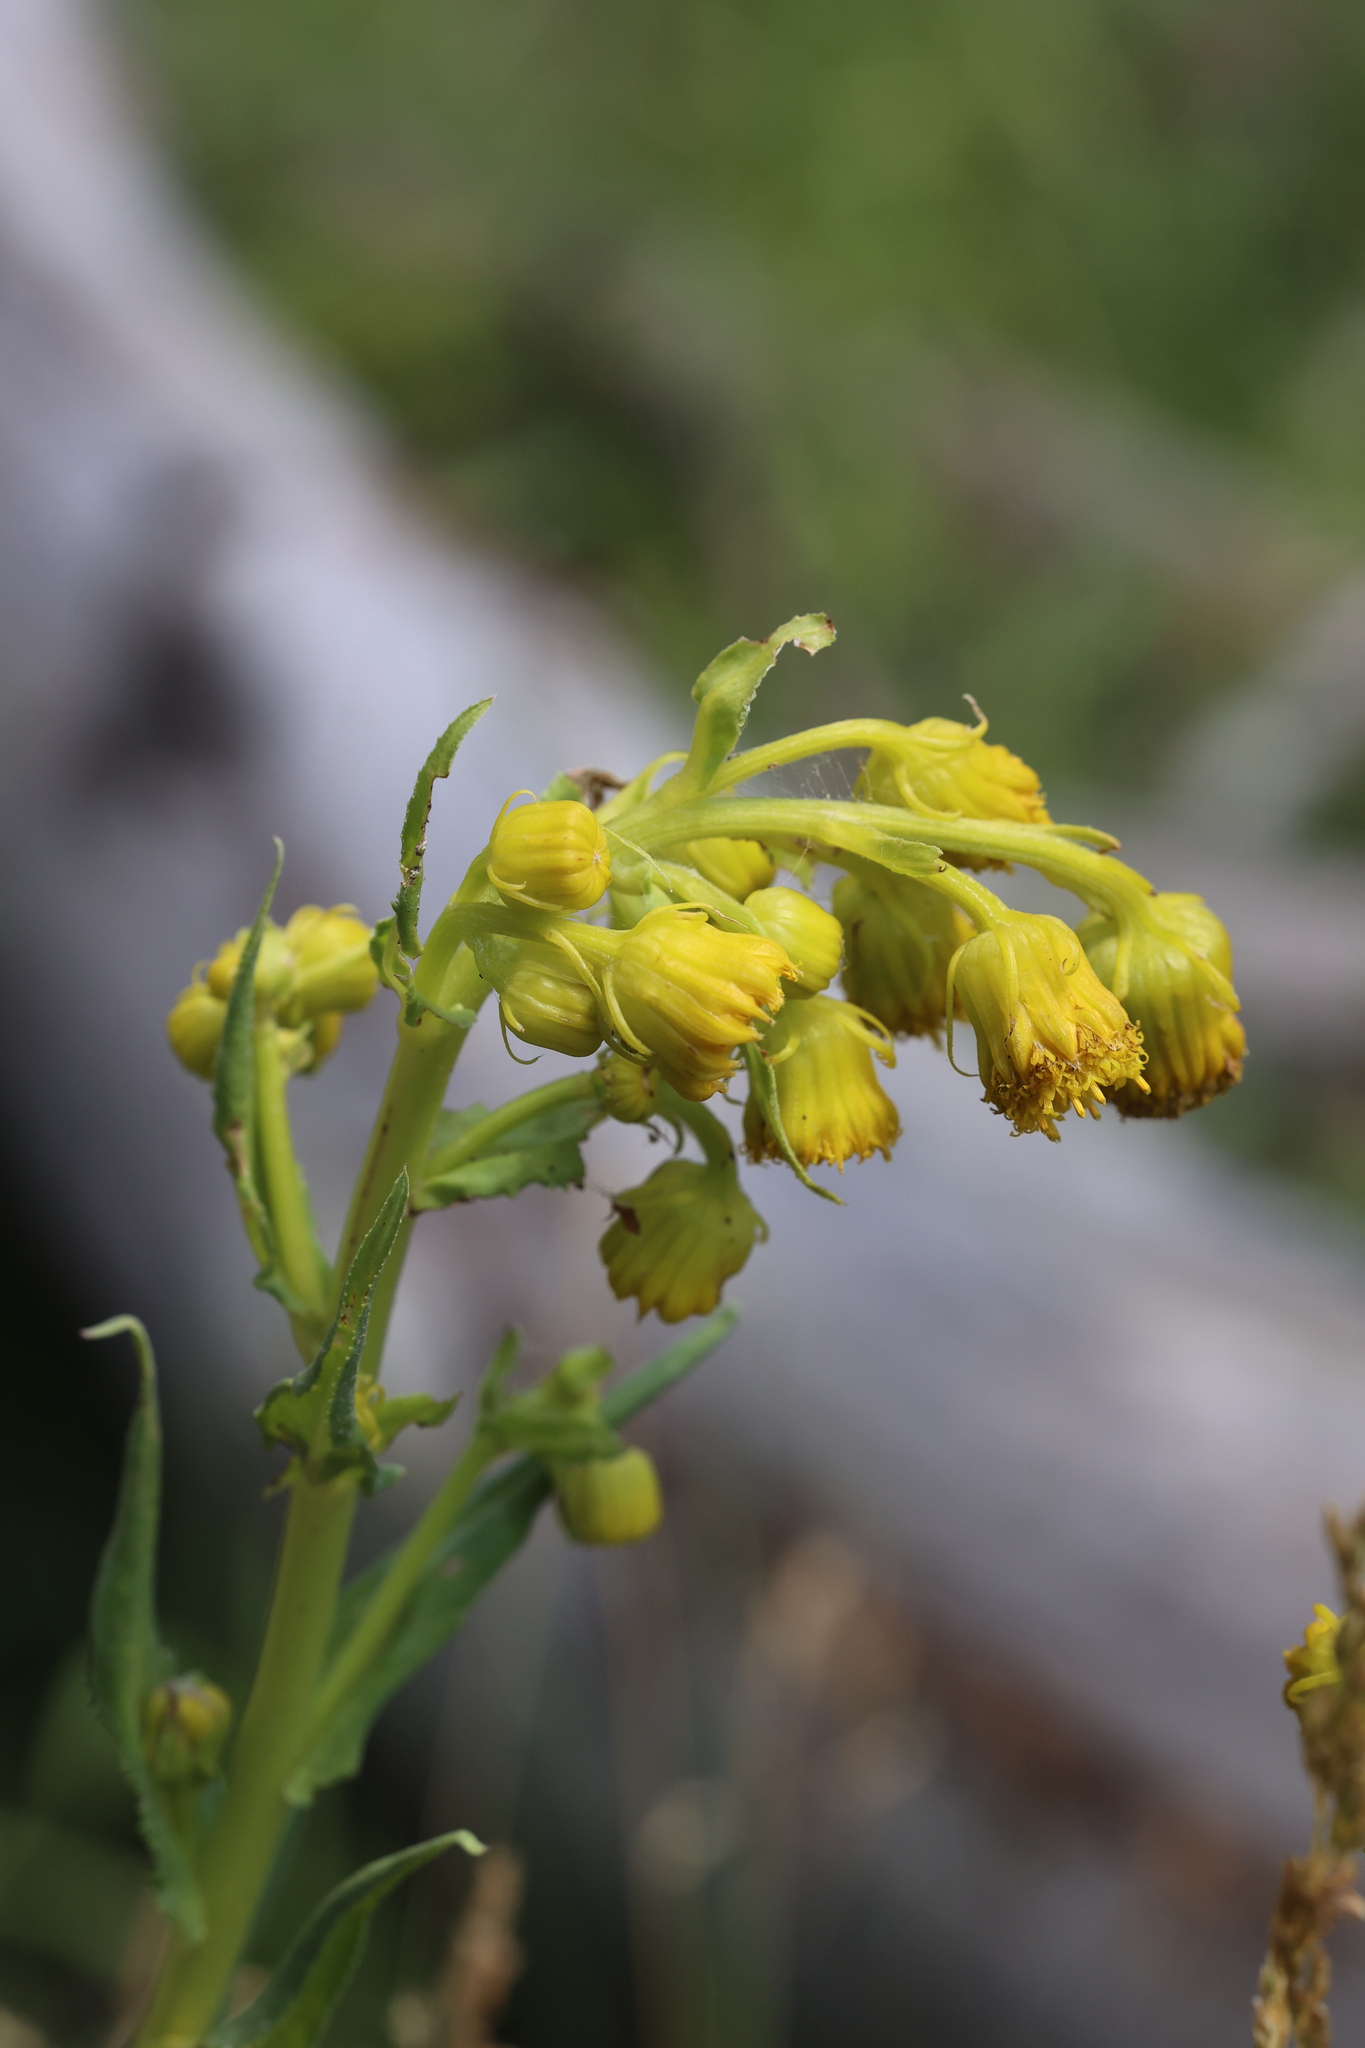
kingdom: Plantae
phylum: Tracheophyta
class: Magnoliopsida
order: Asterales
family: Asteraceae
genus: Senecio
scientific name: Senecio bigelovii
